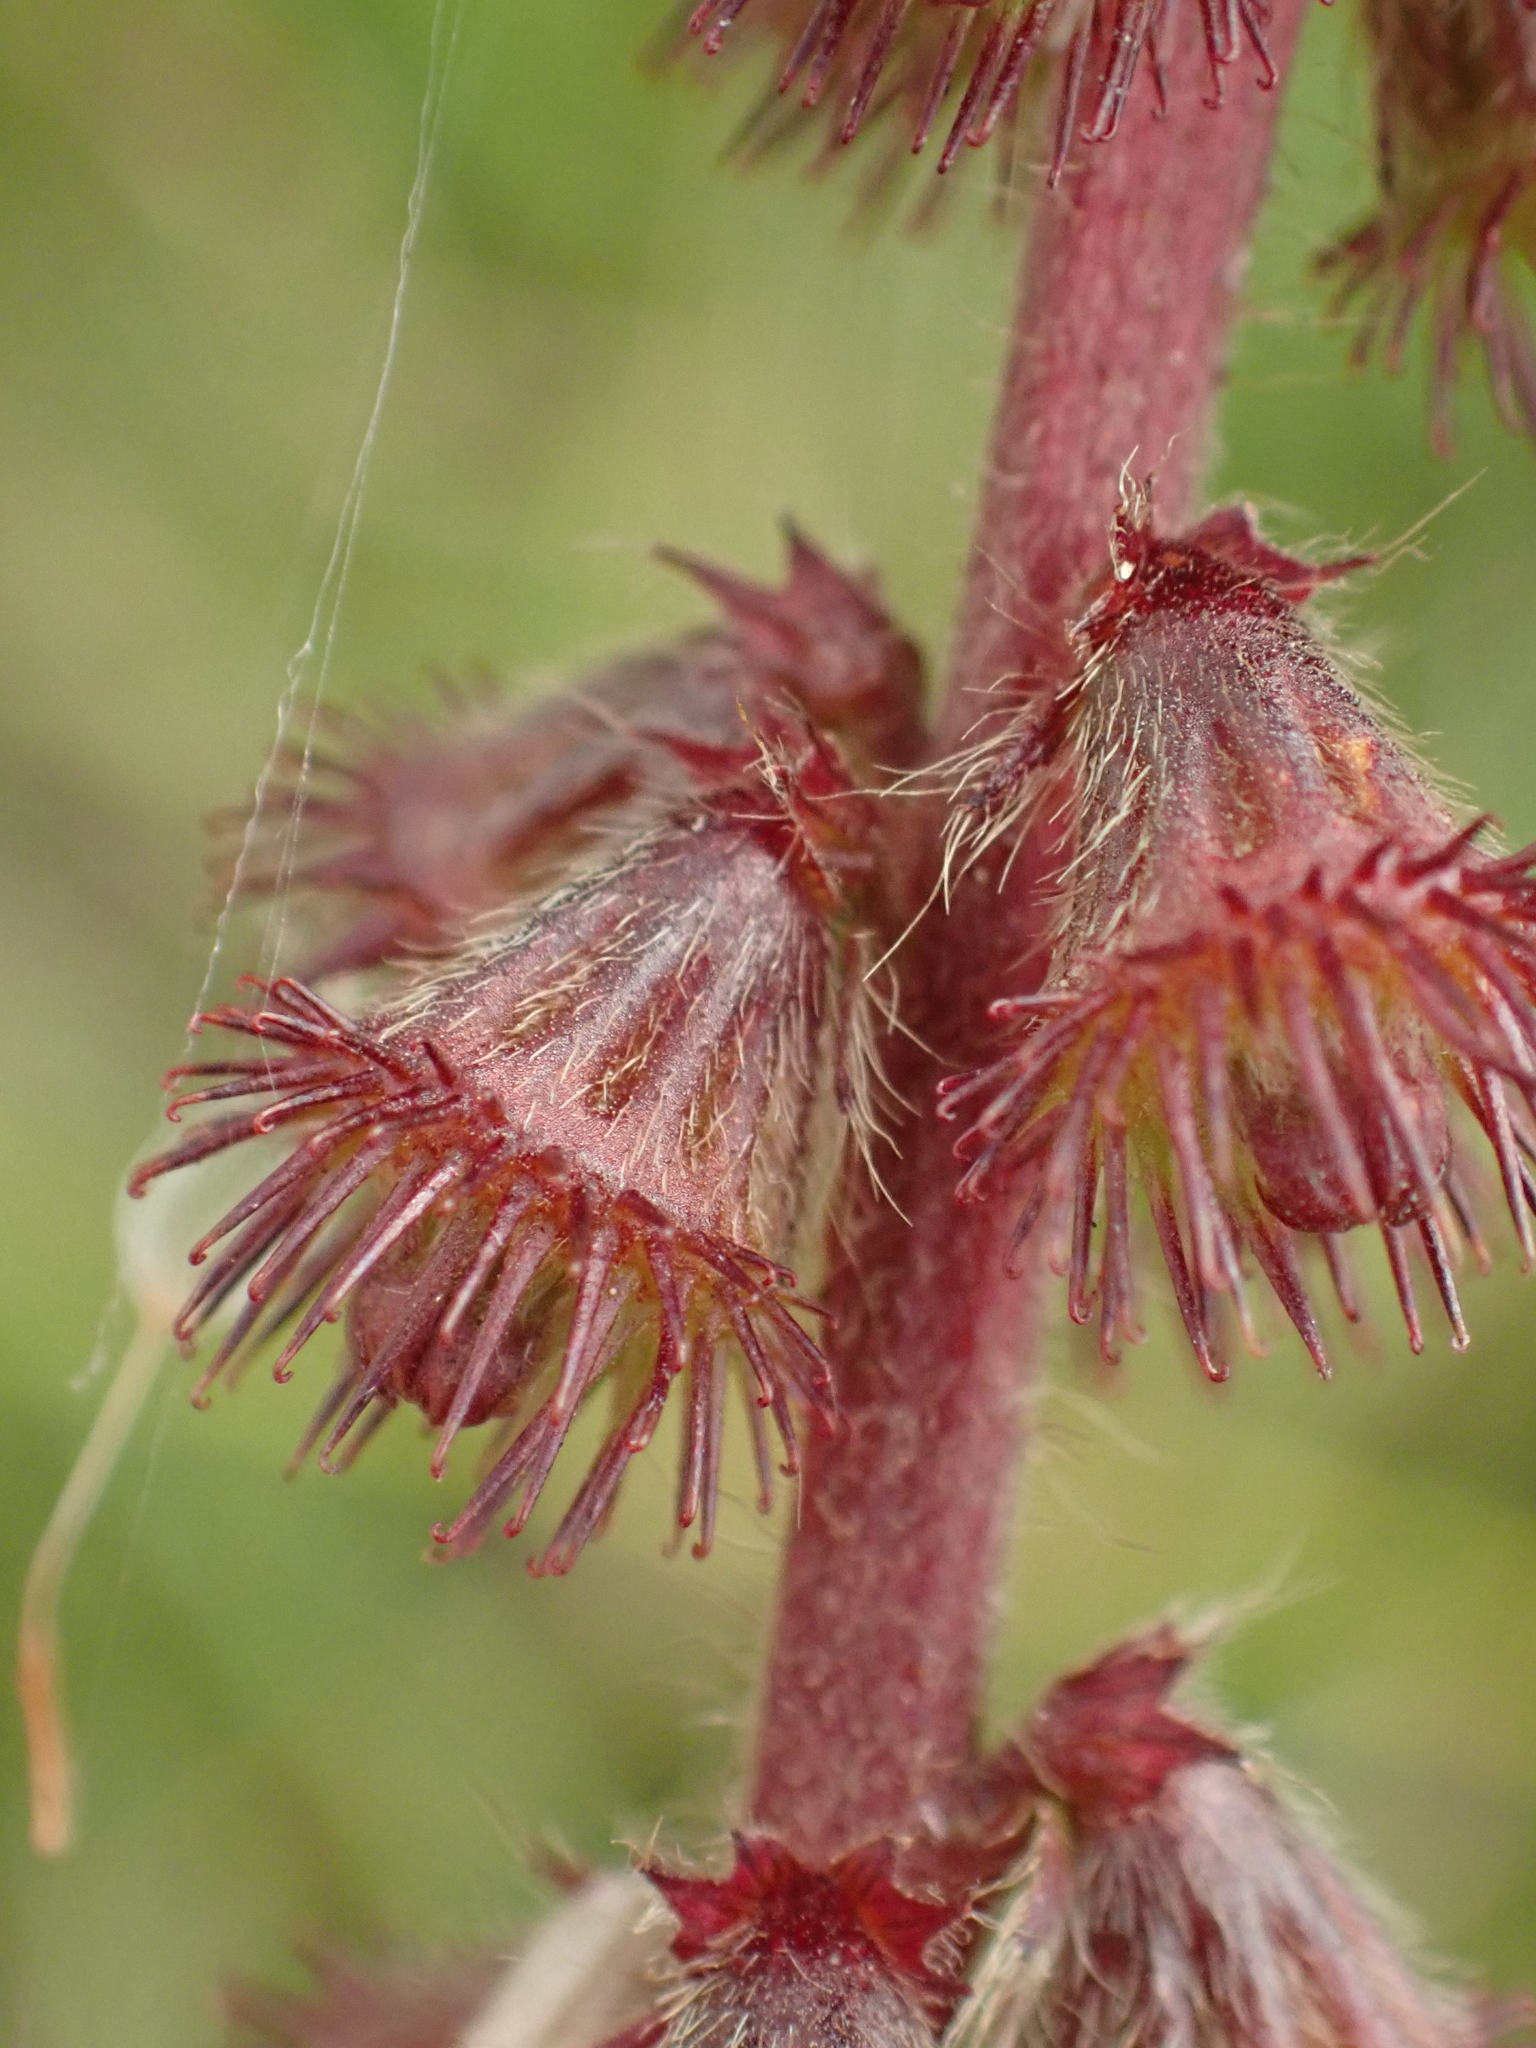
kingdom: Plantae
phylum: Tracheophyta
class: Magnoliopsida
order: Rosales
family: Rosaceae
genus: Agrimonia
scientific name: Agrimonia eupatoria
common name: Agrimony
